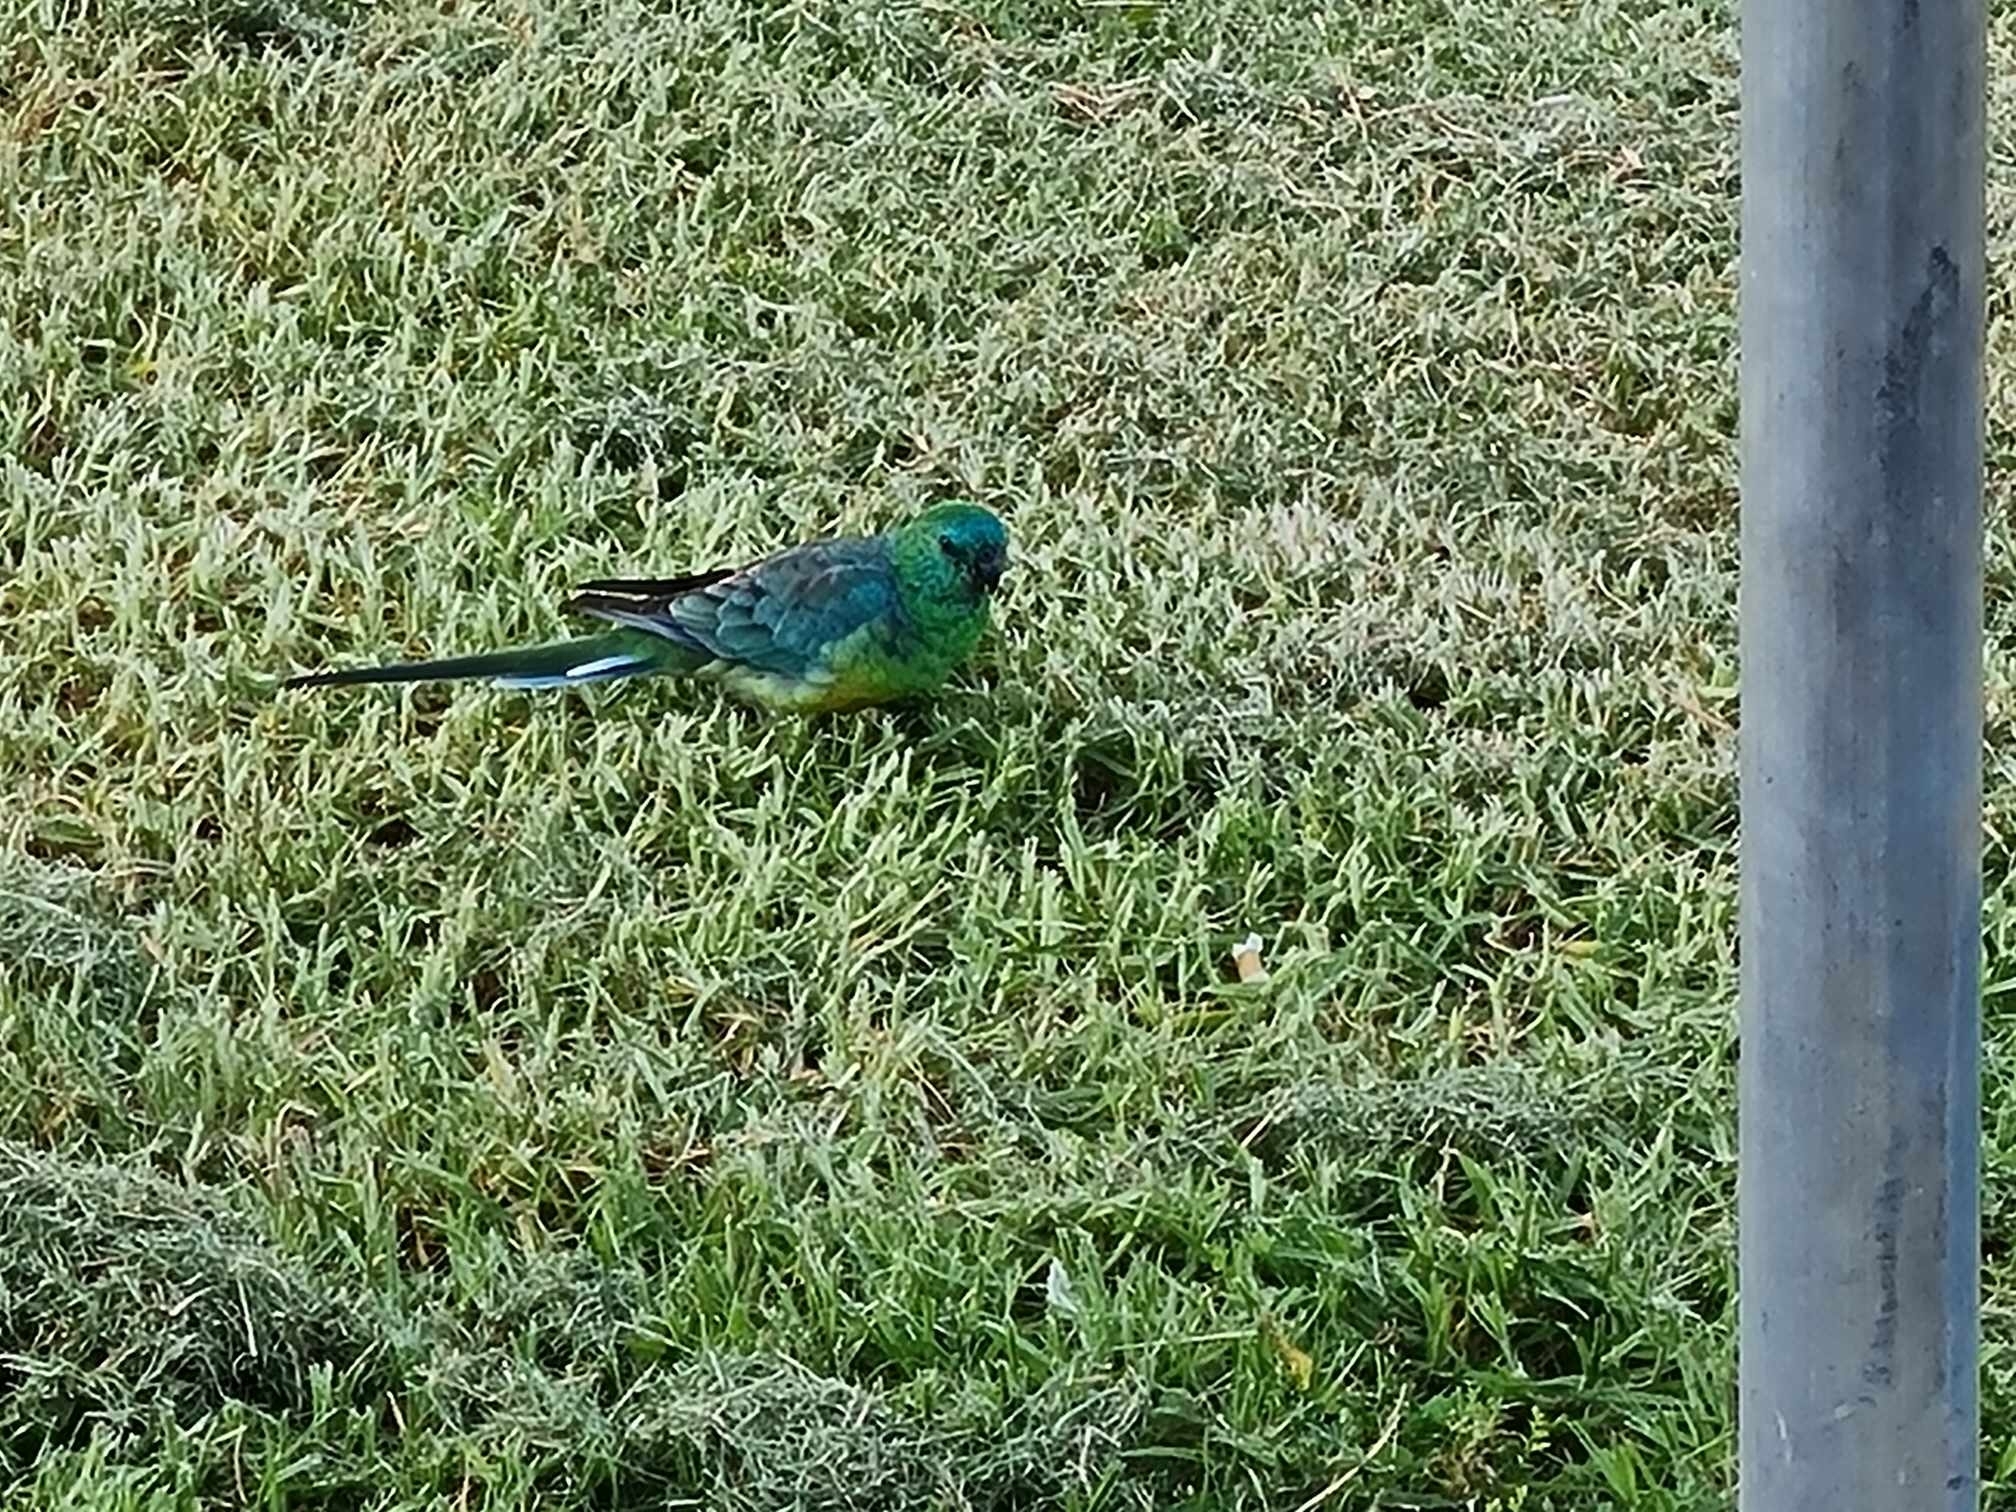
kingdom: Animalia
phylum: Chordata
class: Aves
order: Psittaciformes
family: Psittacidae
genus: Psephotus
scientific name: Psephotus haematonotus
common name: Red-rumped parrot
